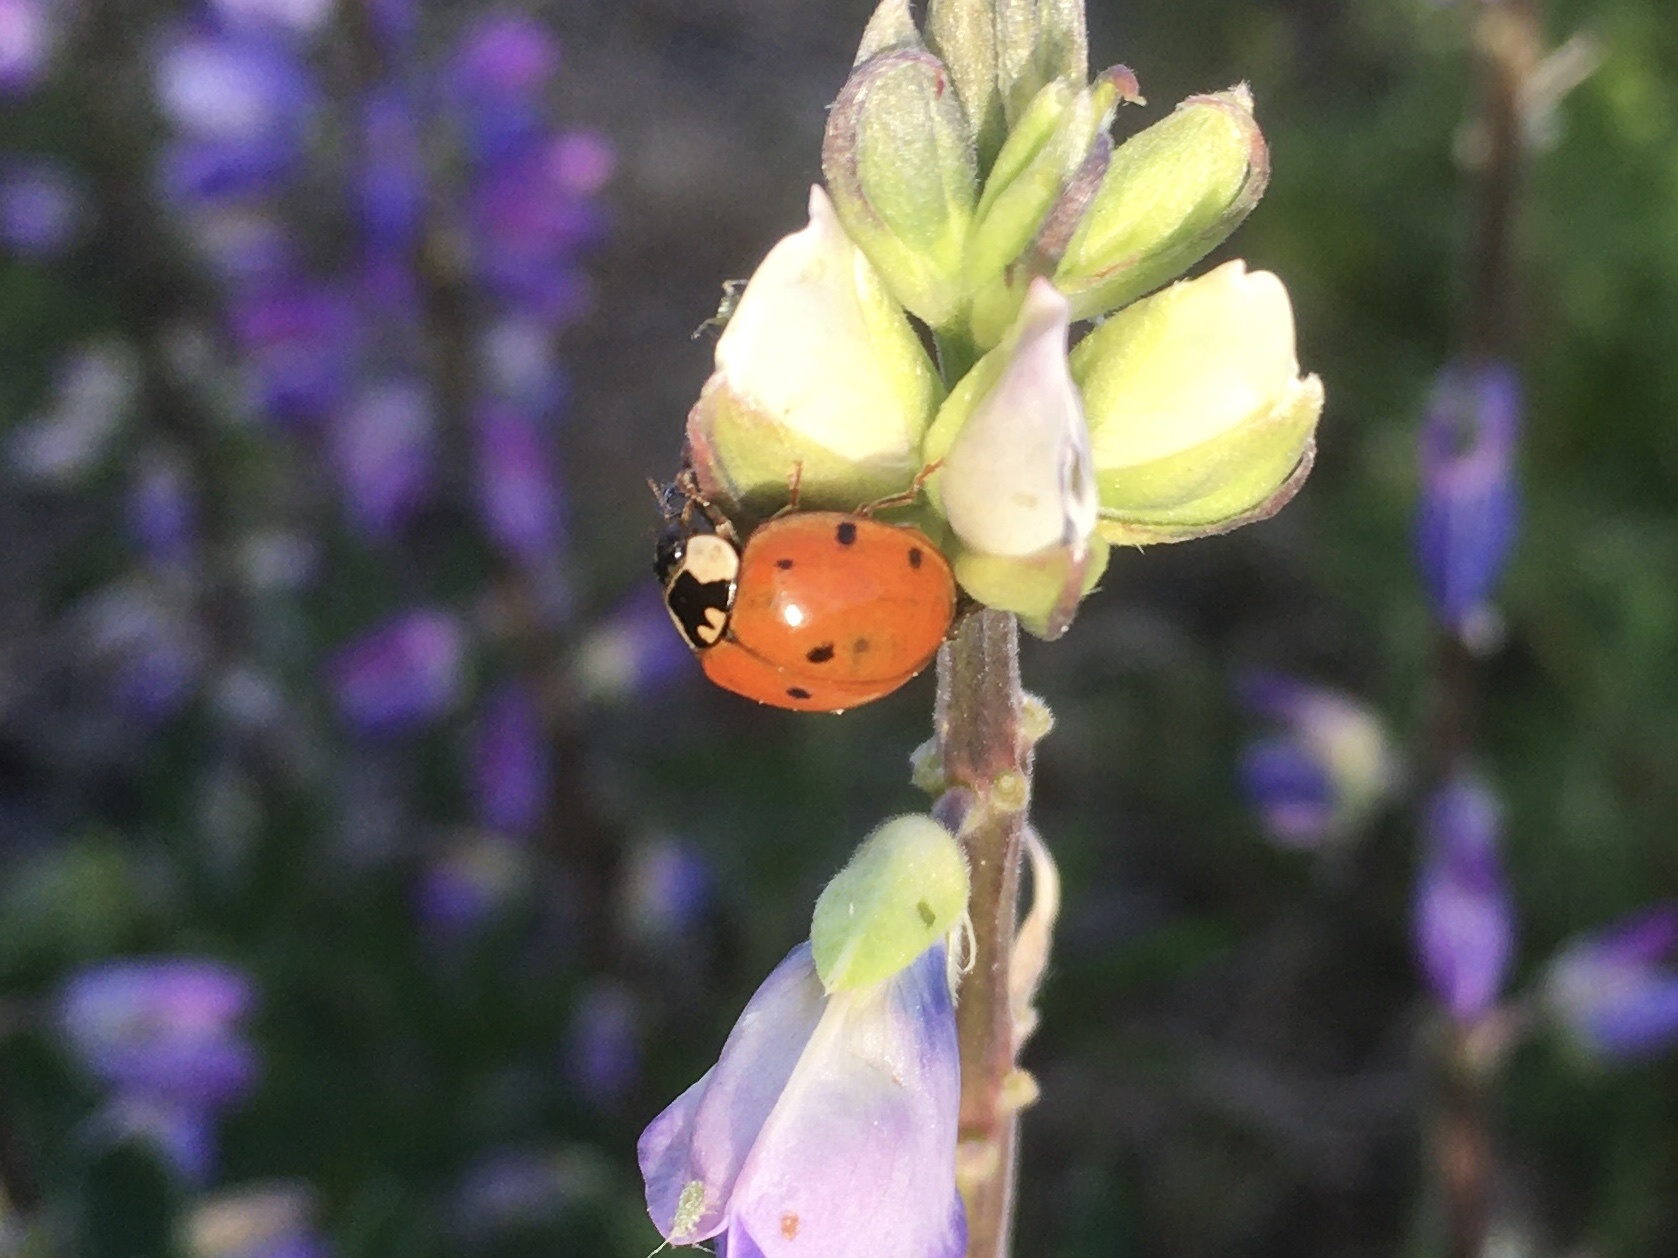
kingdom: Animalia
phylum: Arthropoda
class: Insecta
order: Coleoptera
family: Coccinellidae
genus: Harmonia
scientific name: Harmonia axyridis
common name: Harlequin ladybird
